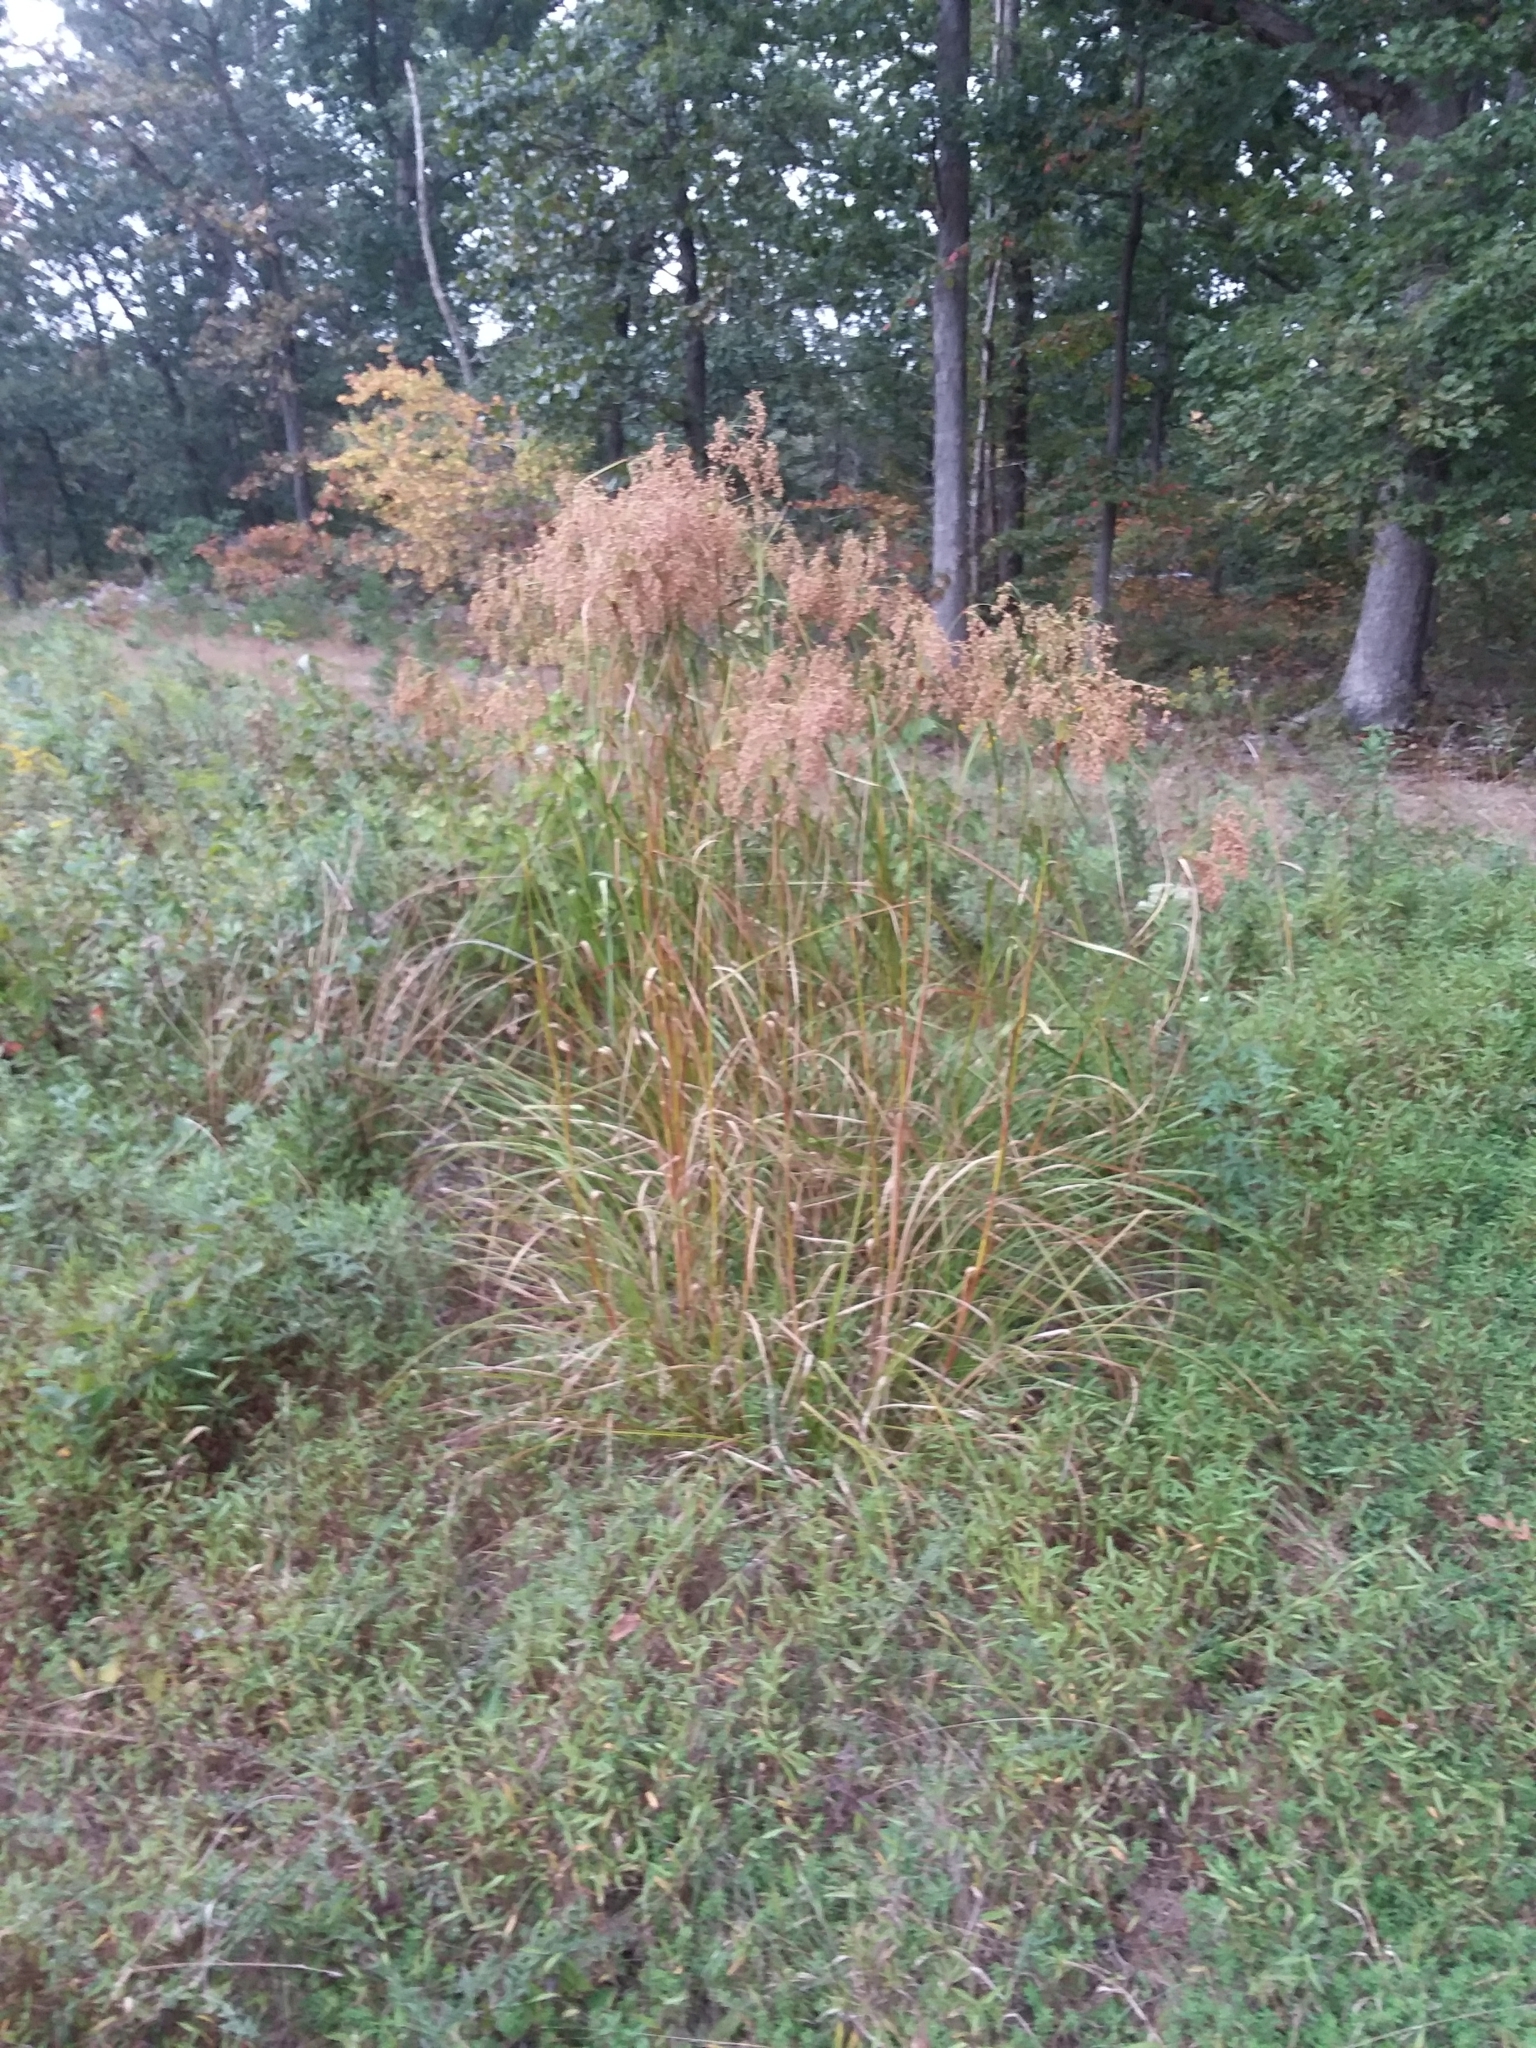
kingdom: Plantae
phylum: Tracheophyta
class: Liliopsida
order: Poales
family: Cyperaceae
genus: Scirpus
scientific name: Scirpus cyperinus
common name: Black-sheathed bulrush
